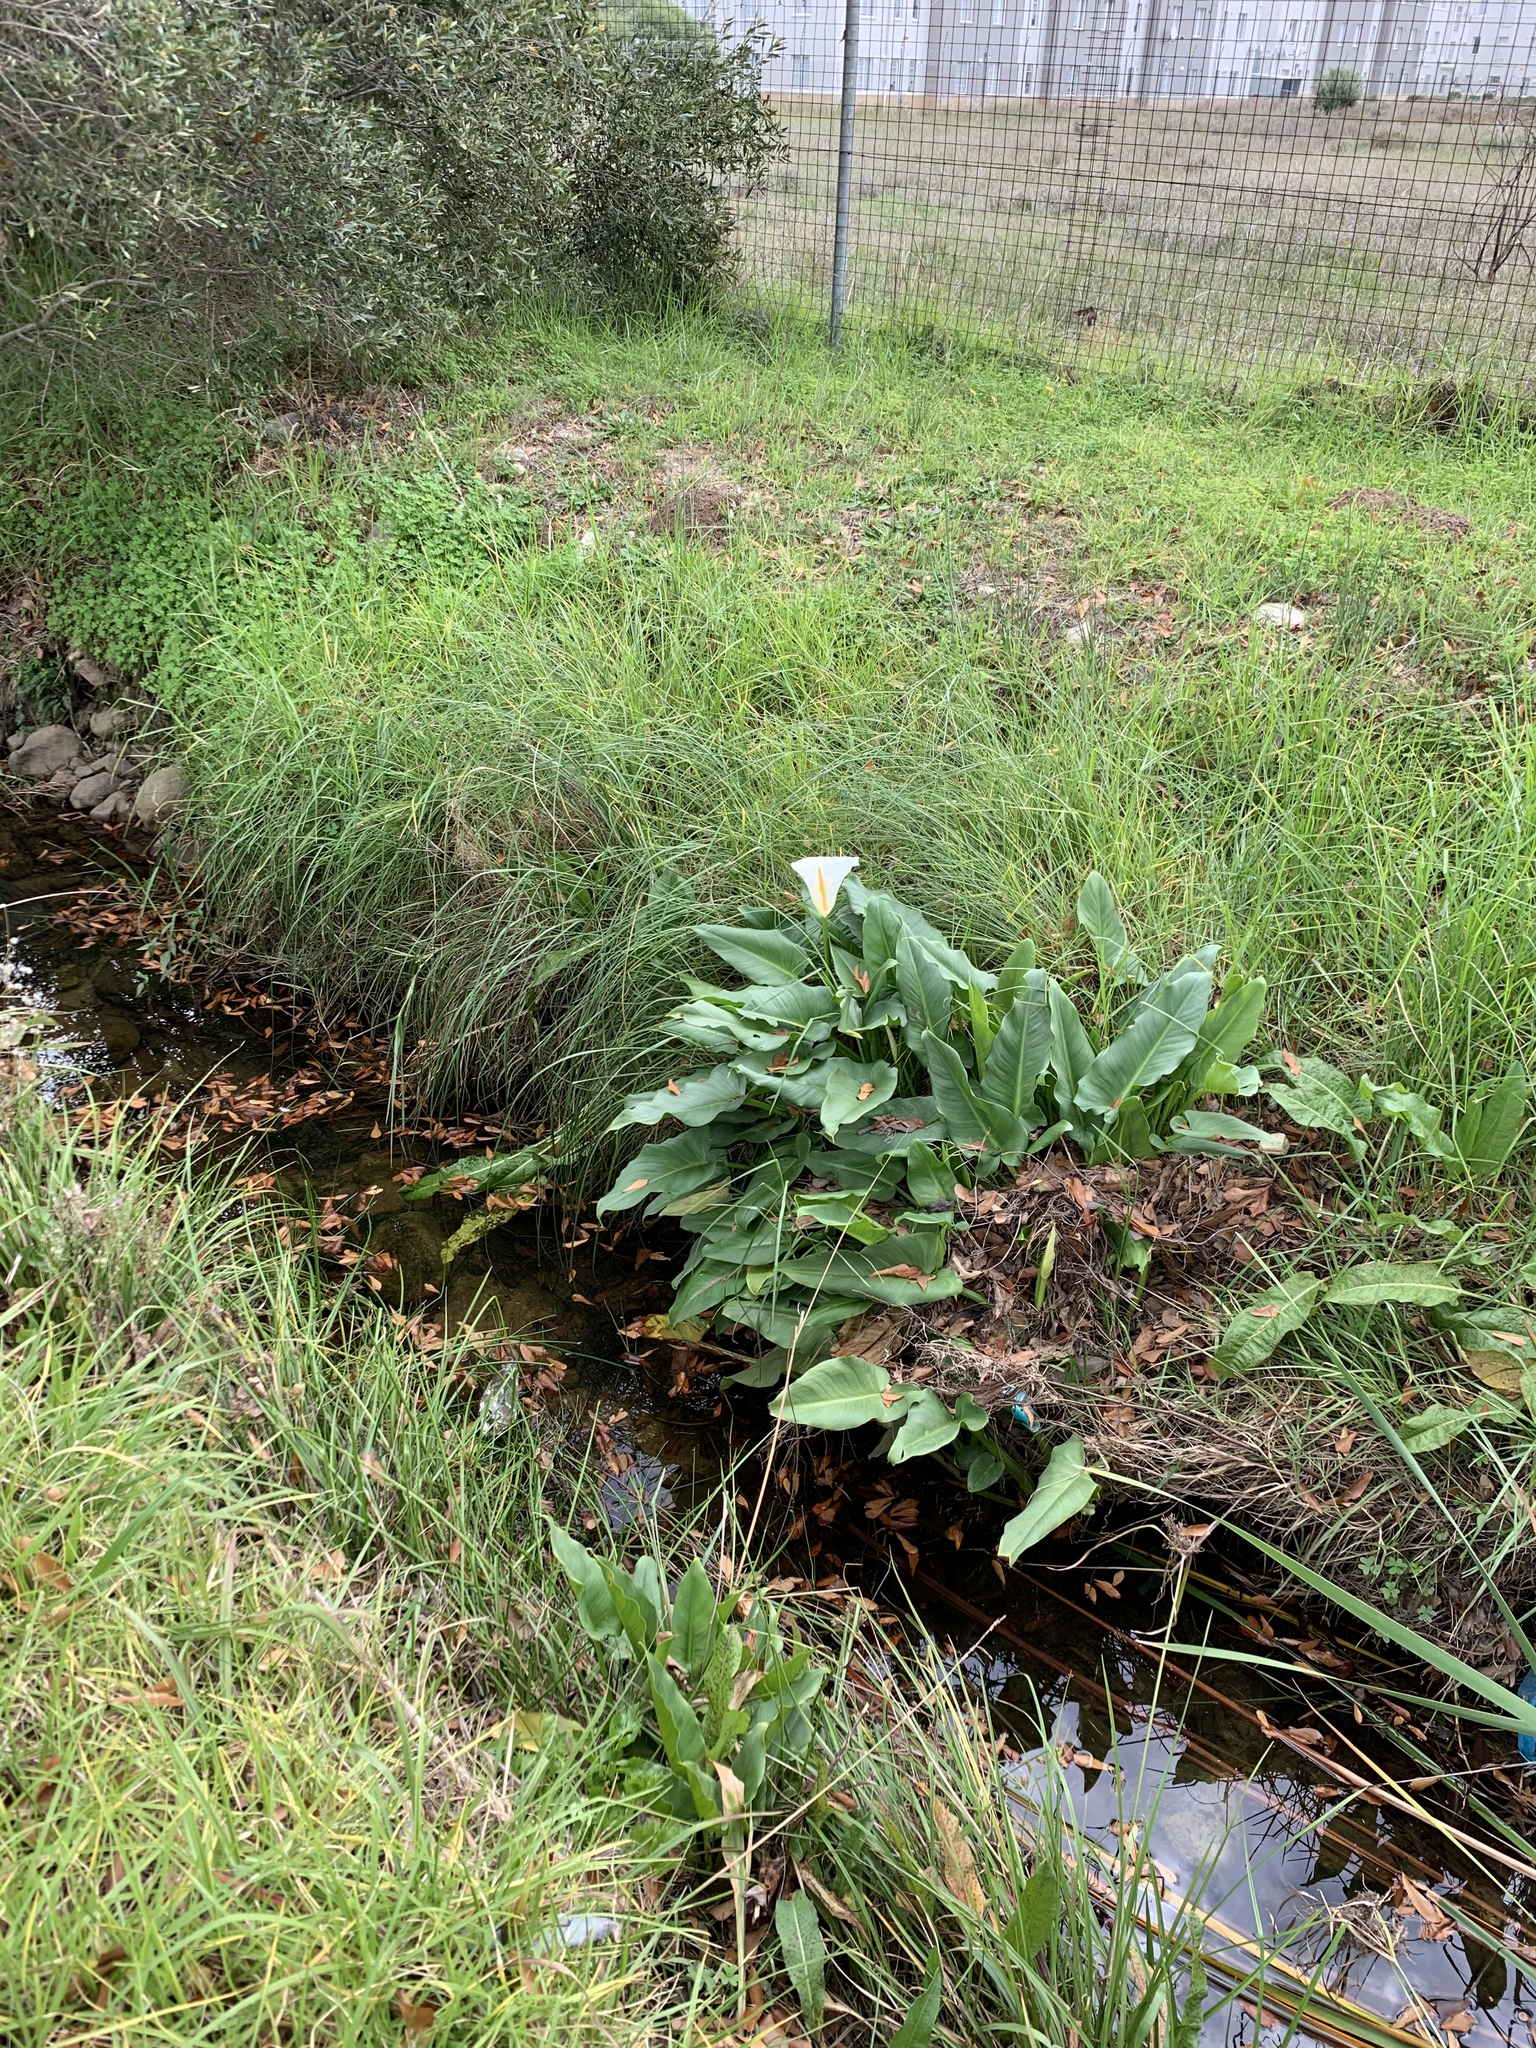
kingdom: Plantae
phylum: Tracheophyta
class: Liliopsida
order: Alismatales
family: Araceae
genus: Zantedeschia
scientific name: Zantedeschia aethiopica
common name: Altar-lily
